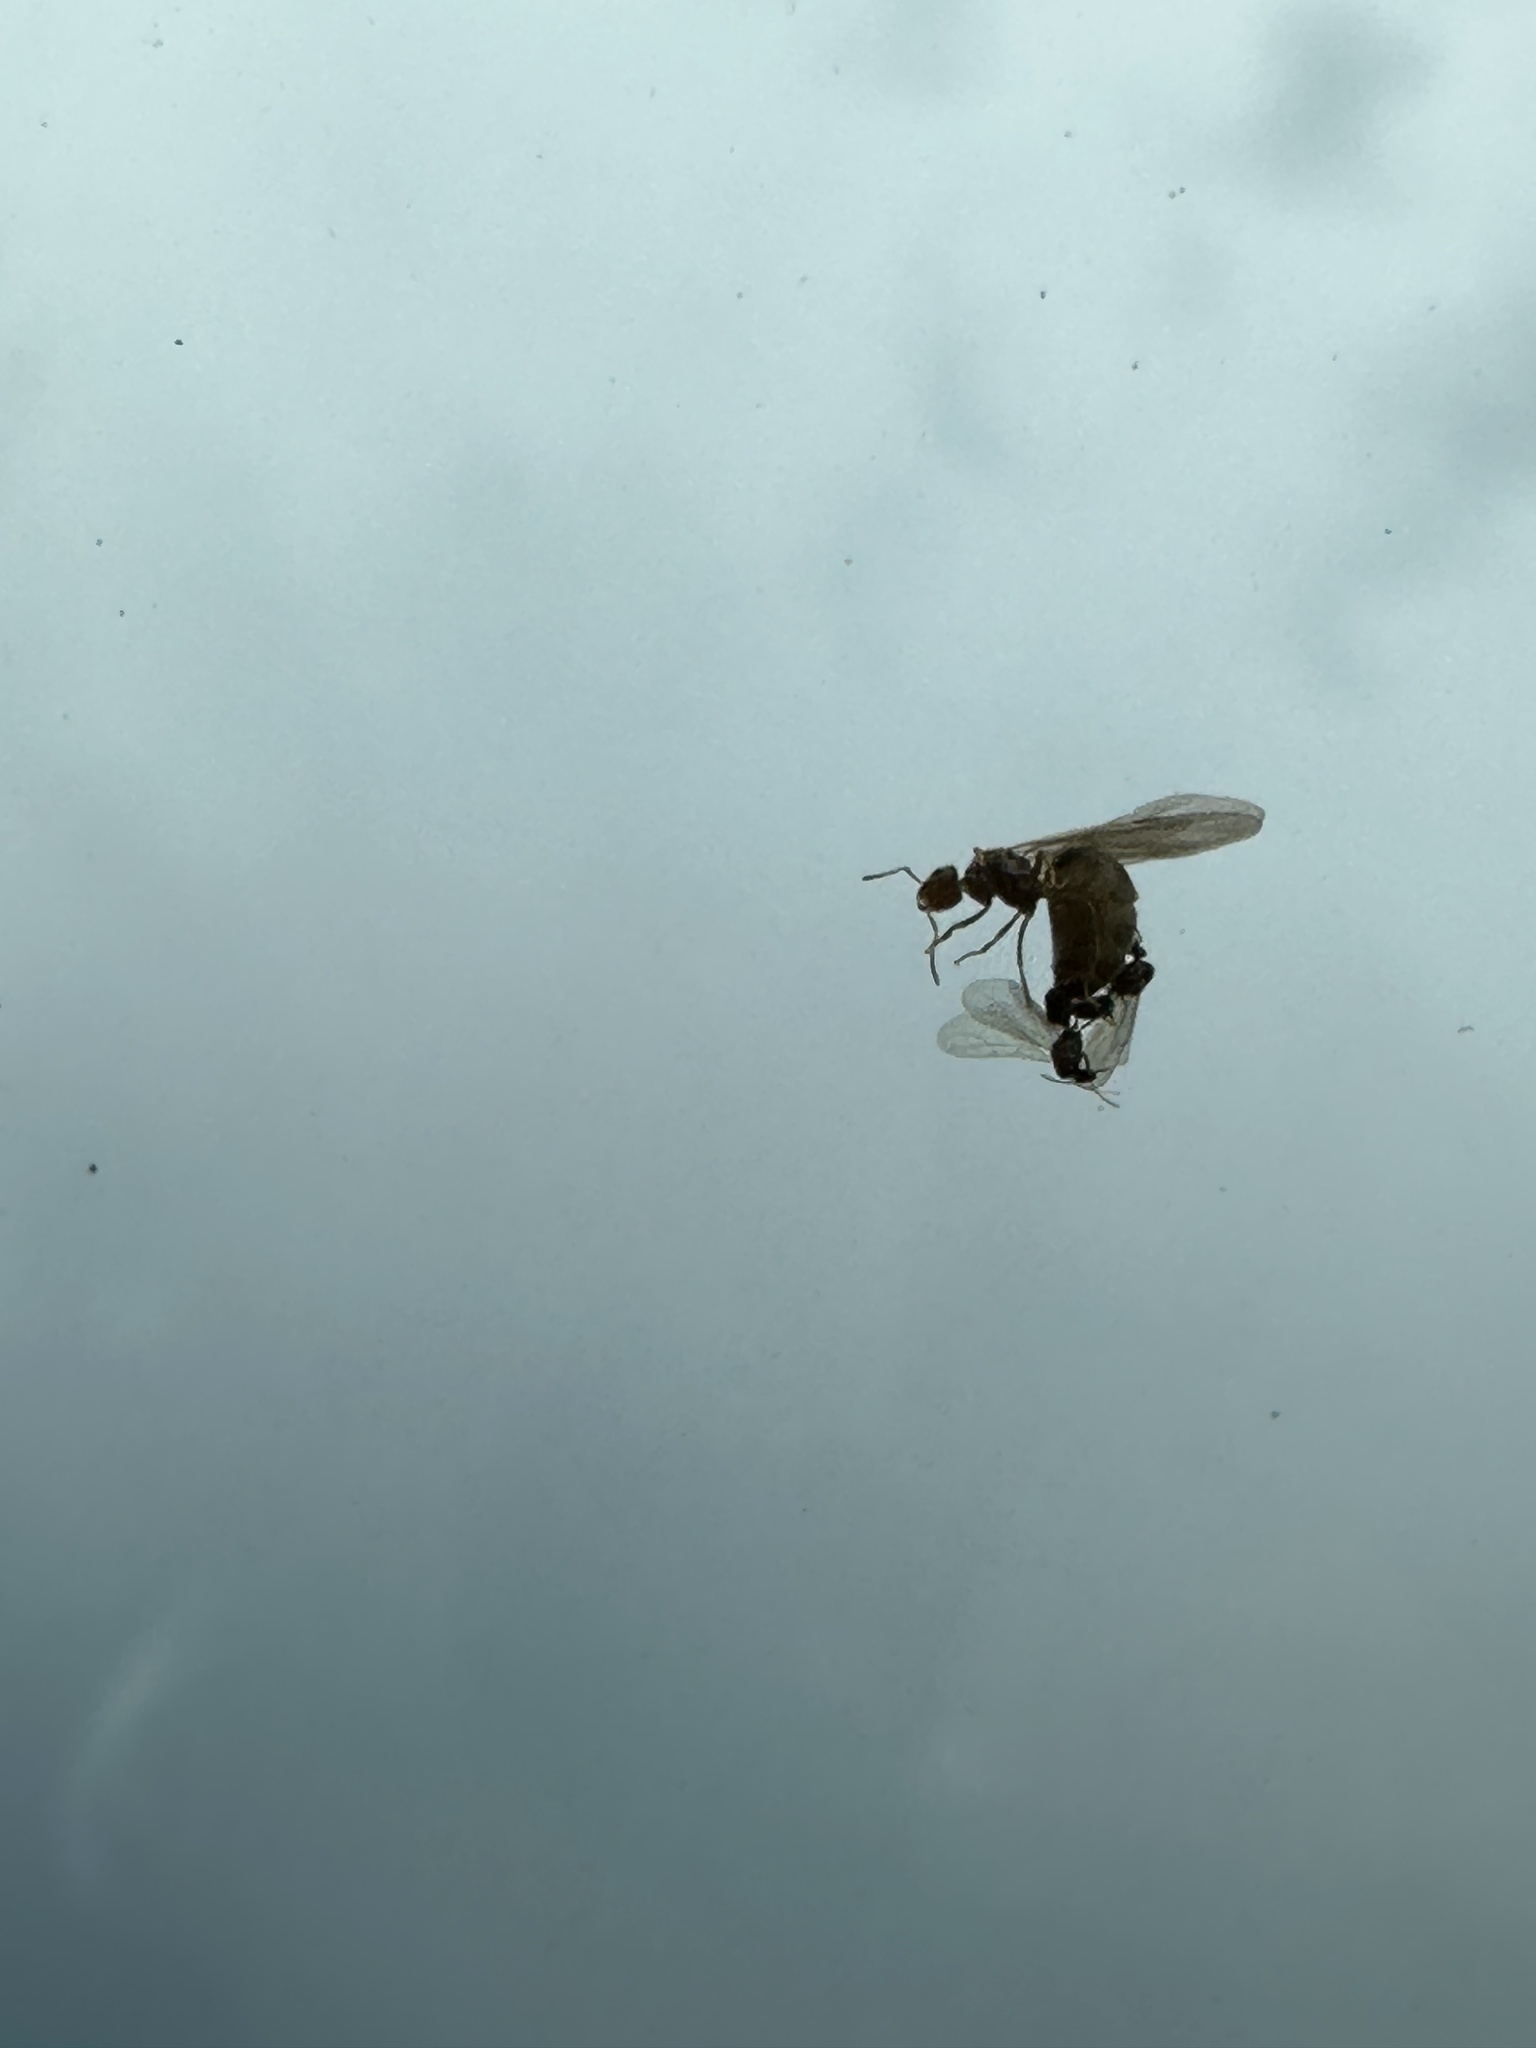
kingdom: Animalia
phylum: Arthropoda
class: Insecta
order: Hymenoptera
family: Formicidae
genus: Brachymyrmex
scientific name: Brachymyrmex obscurior
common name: Obscure rover ant
